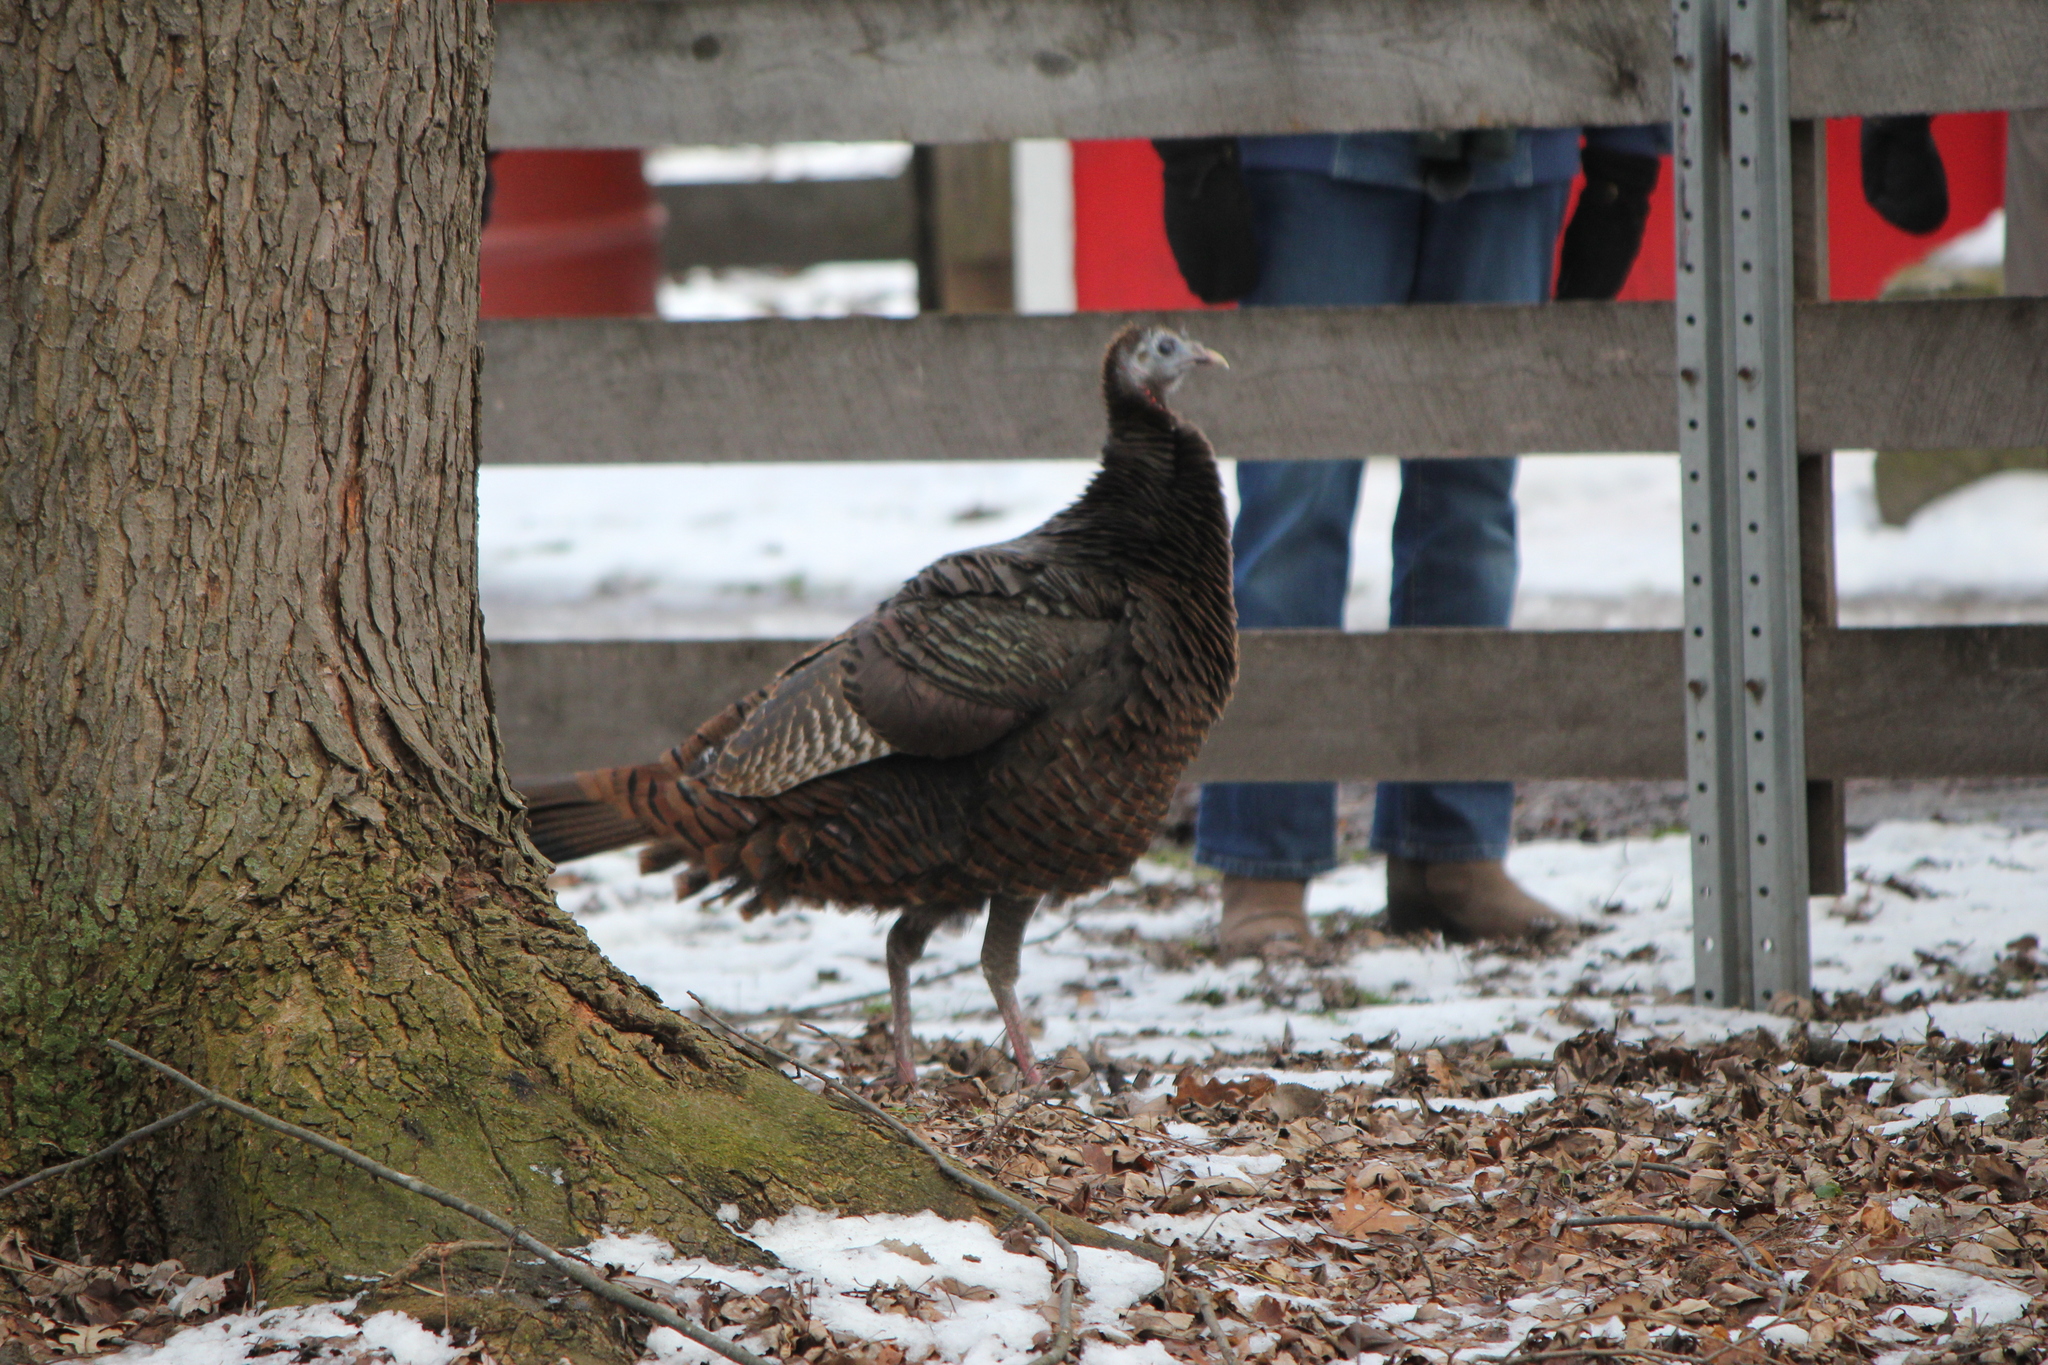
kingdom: Animalia
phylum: Chordata
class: Aves
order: Galliformes
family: Phasianidae
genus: Meleagris
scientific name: Meleagris gallopavo
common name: Wild turkey
